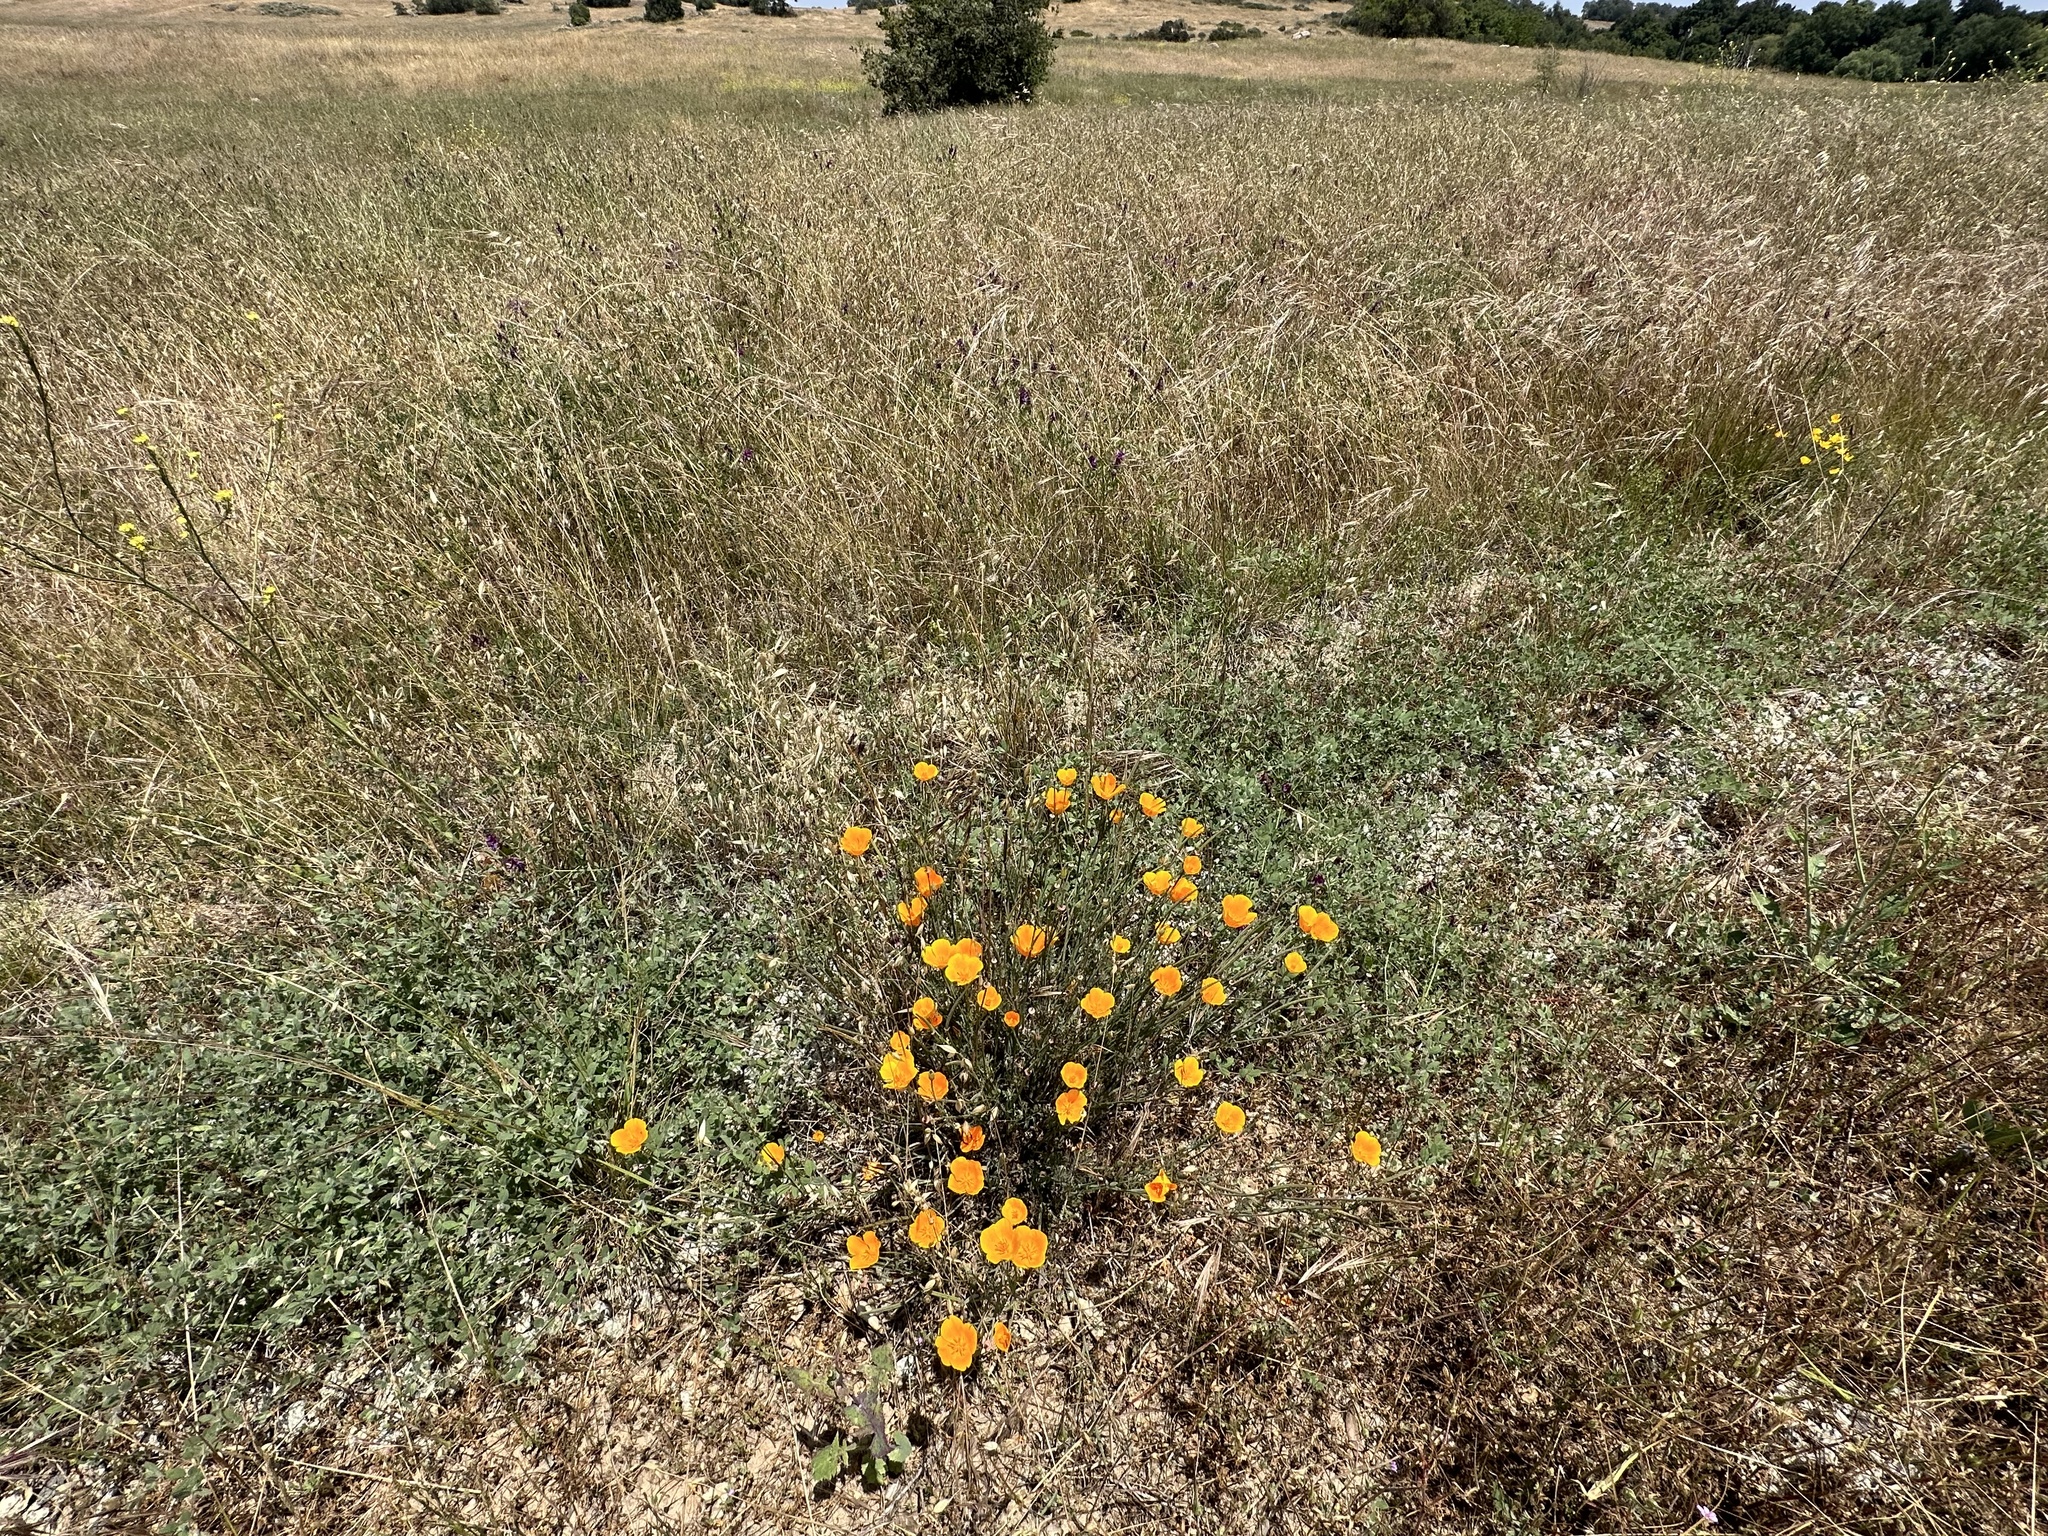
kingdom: Plantae
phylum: Tracheophyta
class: Magnoliopsida
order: Ranunculales
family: Papaveraceae
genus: Eschscholzia
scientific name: Eschscholzia californica
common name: California poppy
